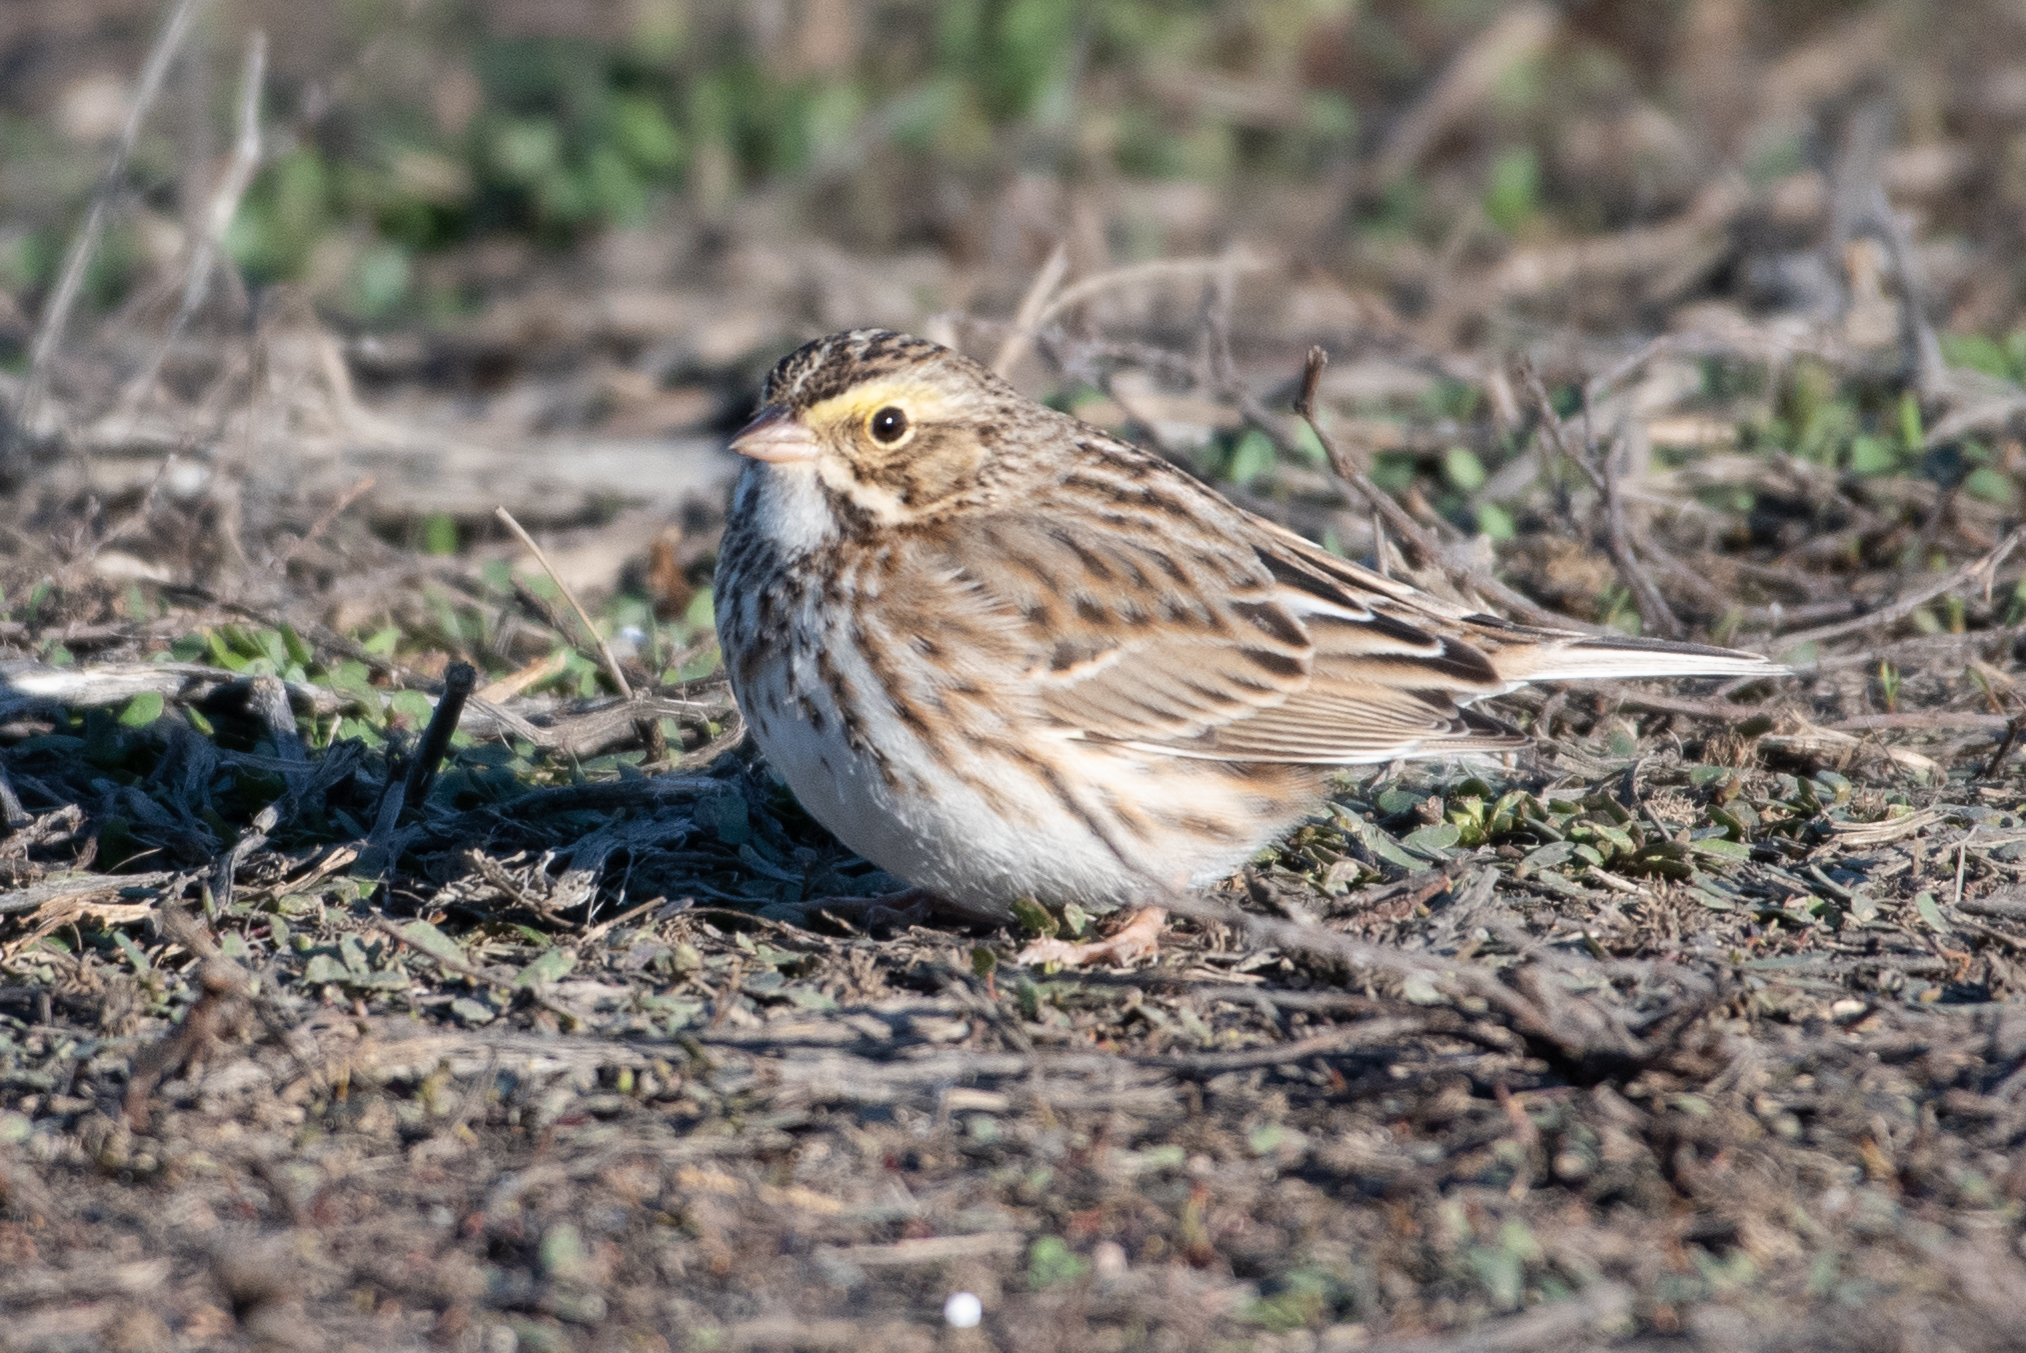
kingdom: Animalia
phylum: Chordata
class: Aves
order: Passeriformes
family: Passerellidae
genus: Passerculus
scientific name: Passerculus sandwichensis
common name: Savannah sparrow
